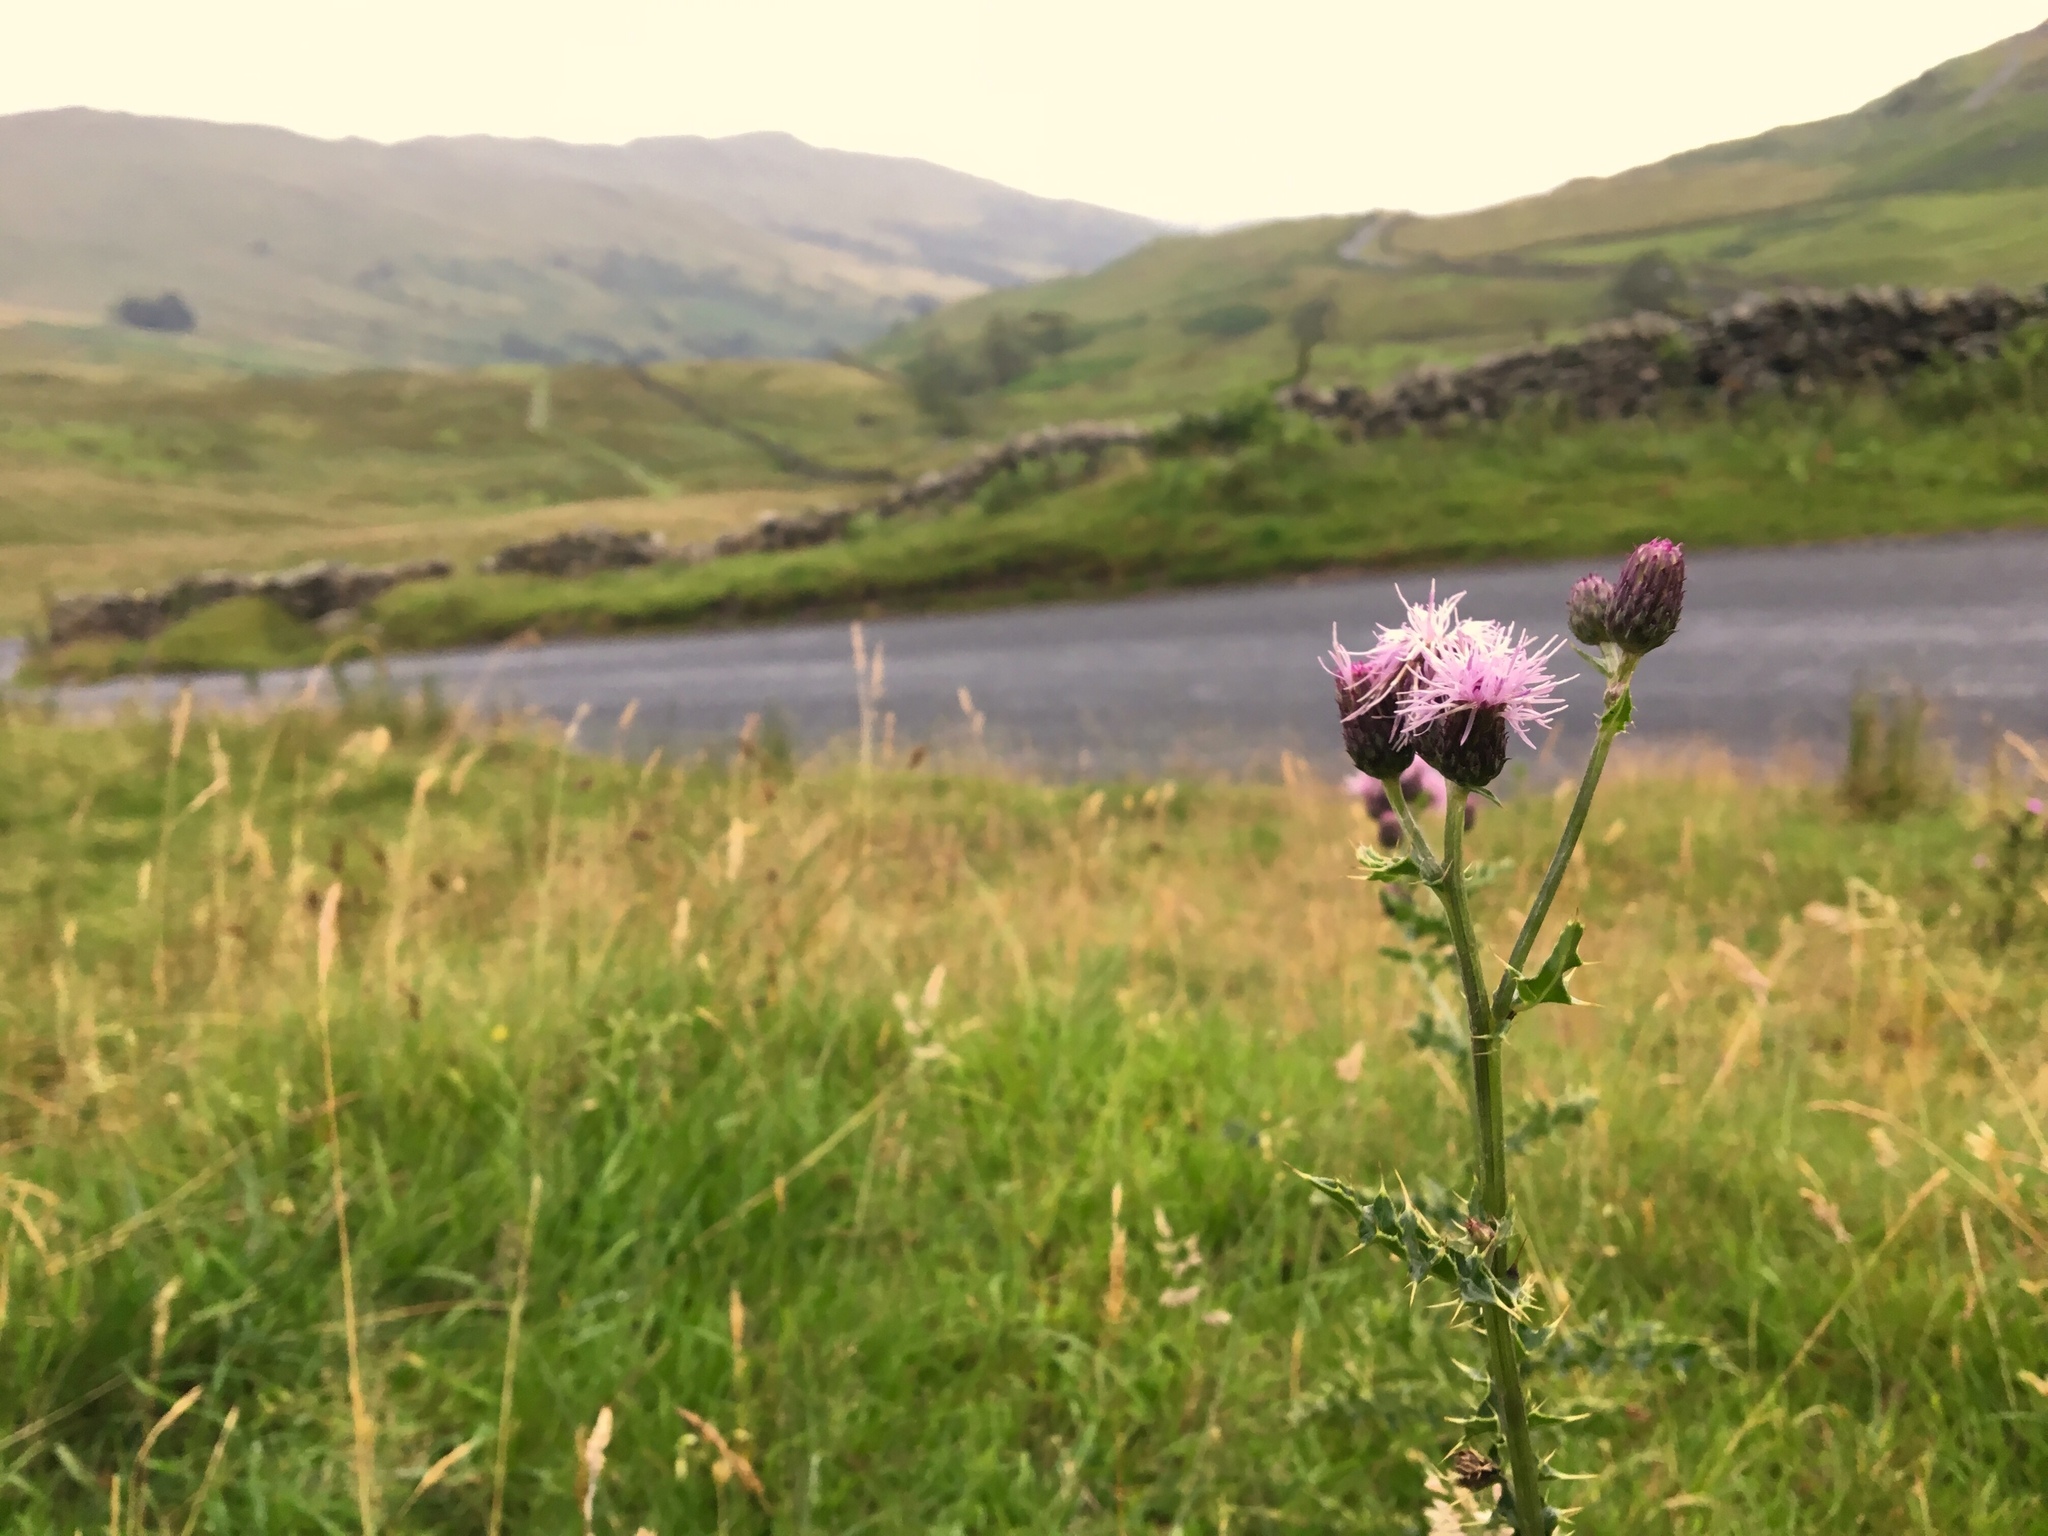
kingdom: Plantae
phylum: Tracheophyta
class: Magnoliopsida
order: Asterales
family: Asteraceae
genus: Cirsium
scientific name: Cirsium arvense
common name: Creeping thistle
